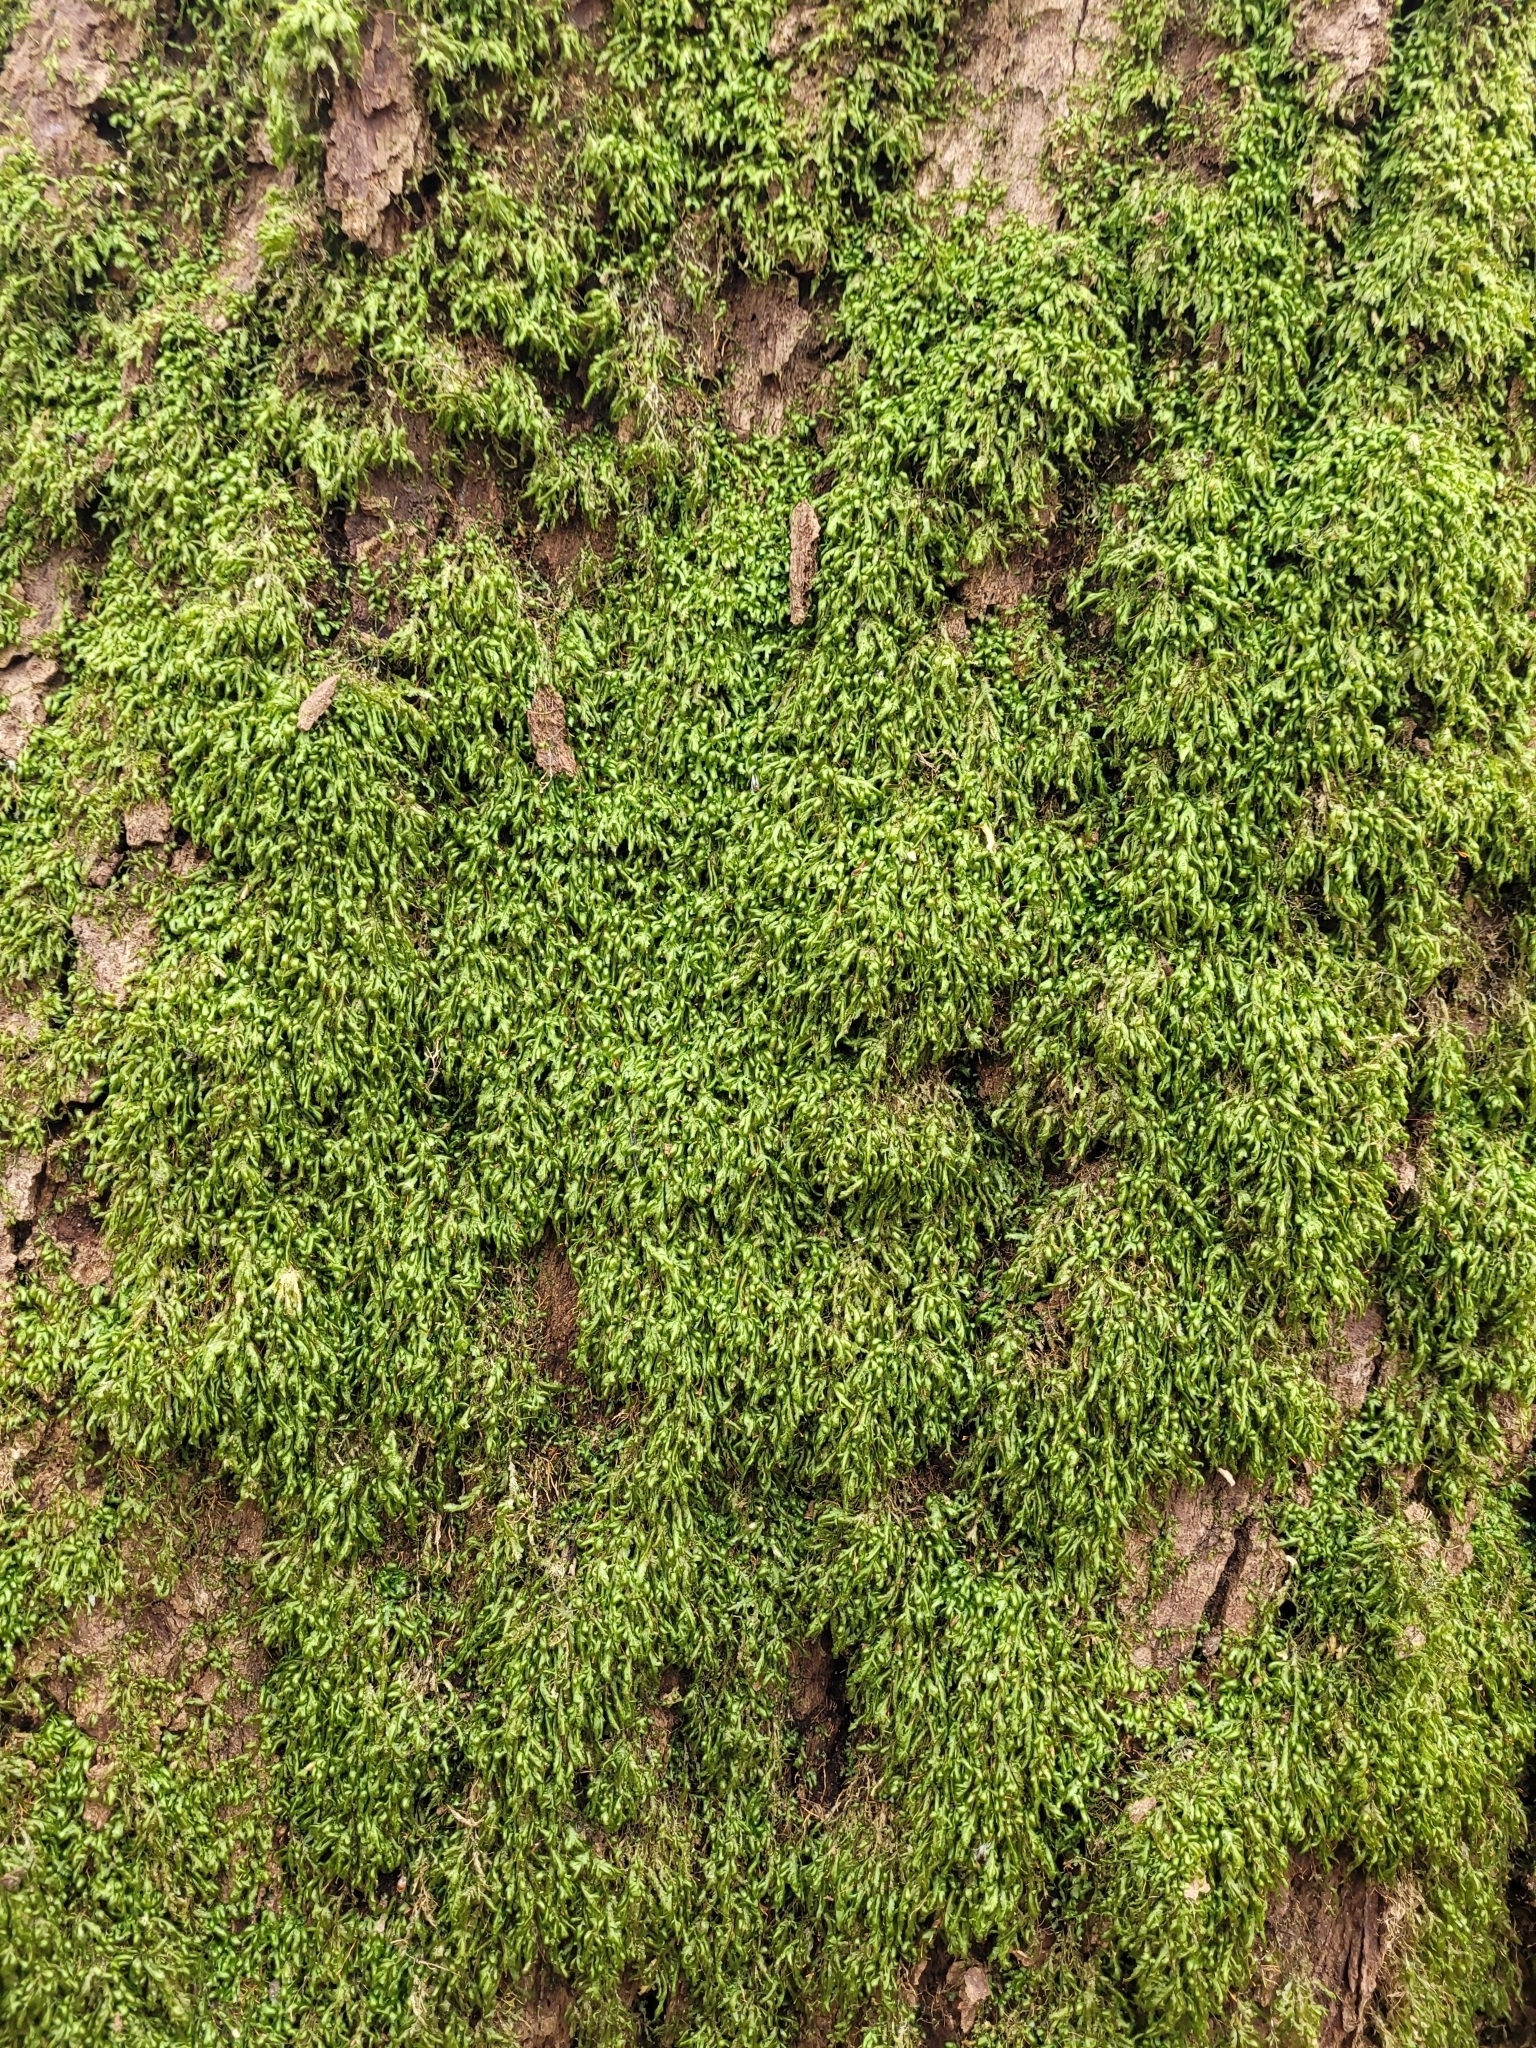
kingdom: Plantae
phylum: Bryophyta
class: Bryopsida
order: Hypnales
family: Neckeraceae
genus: Homalia
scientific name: Homalia trichomanoides
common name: Lime homalia moss
